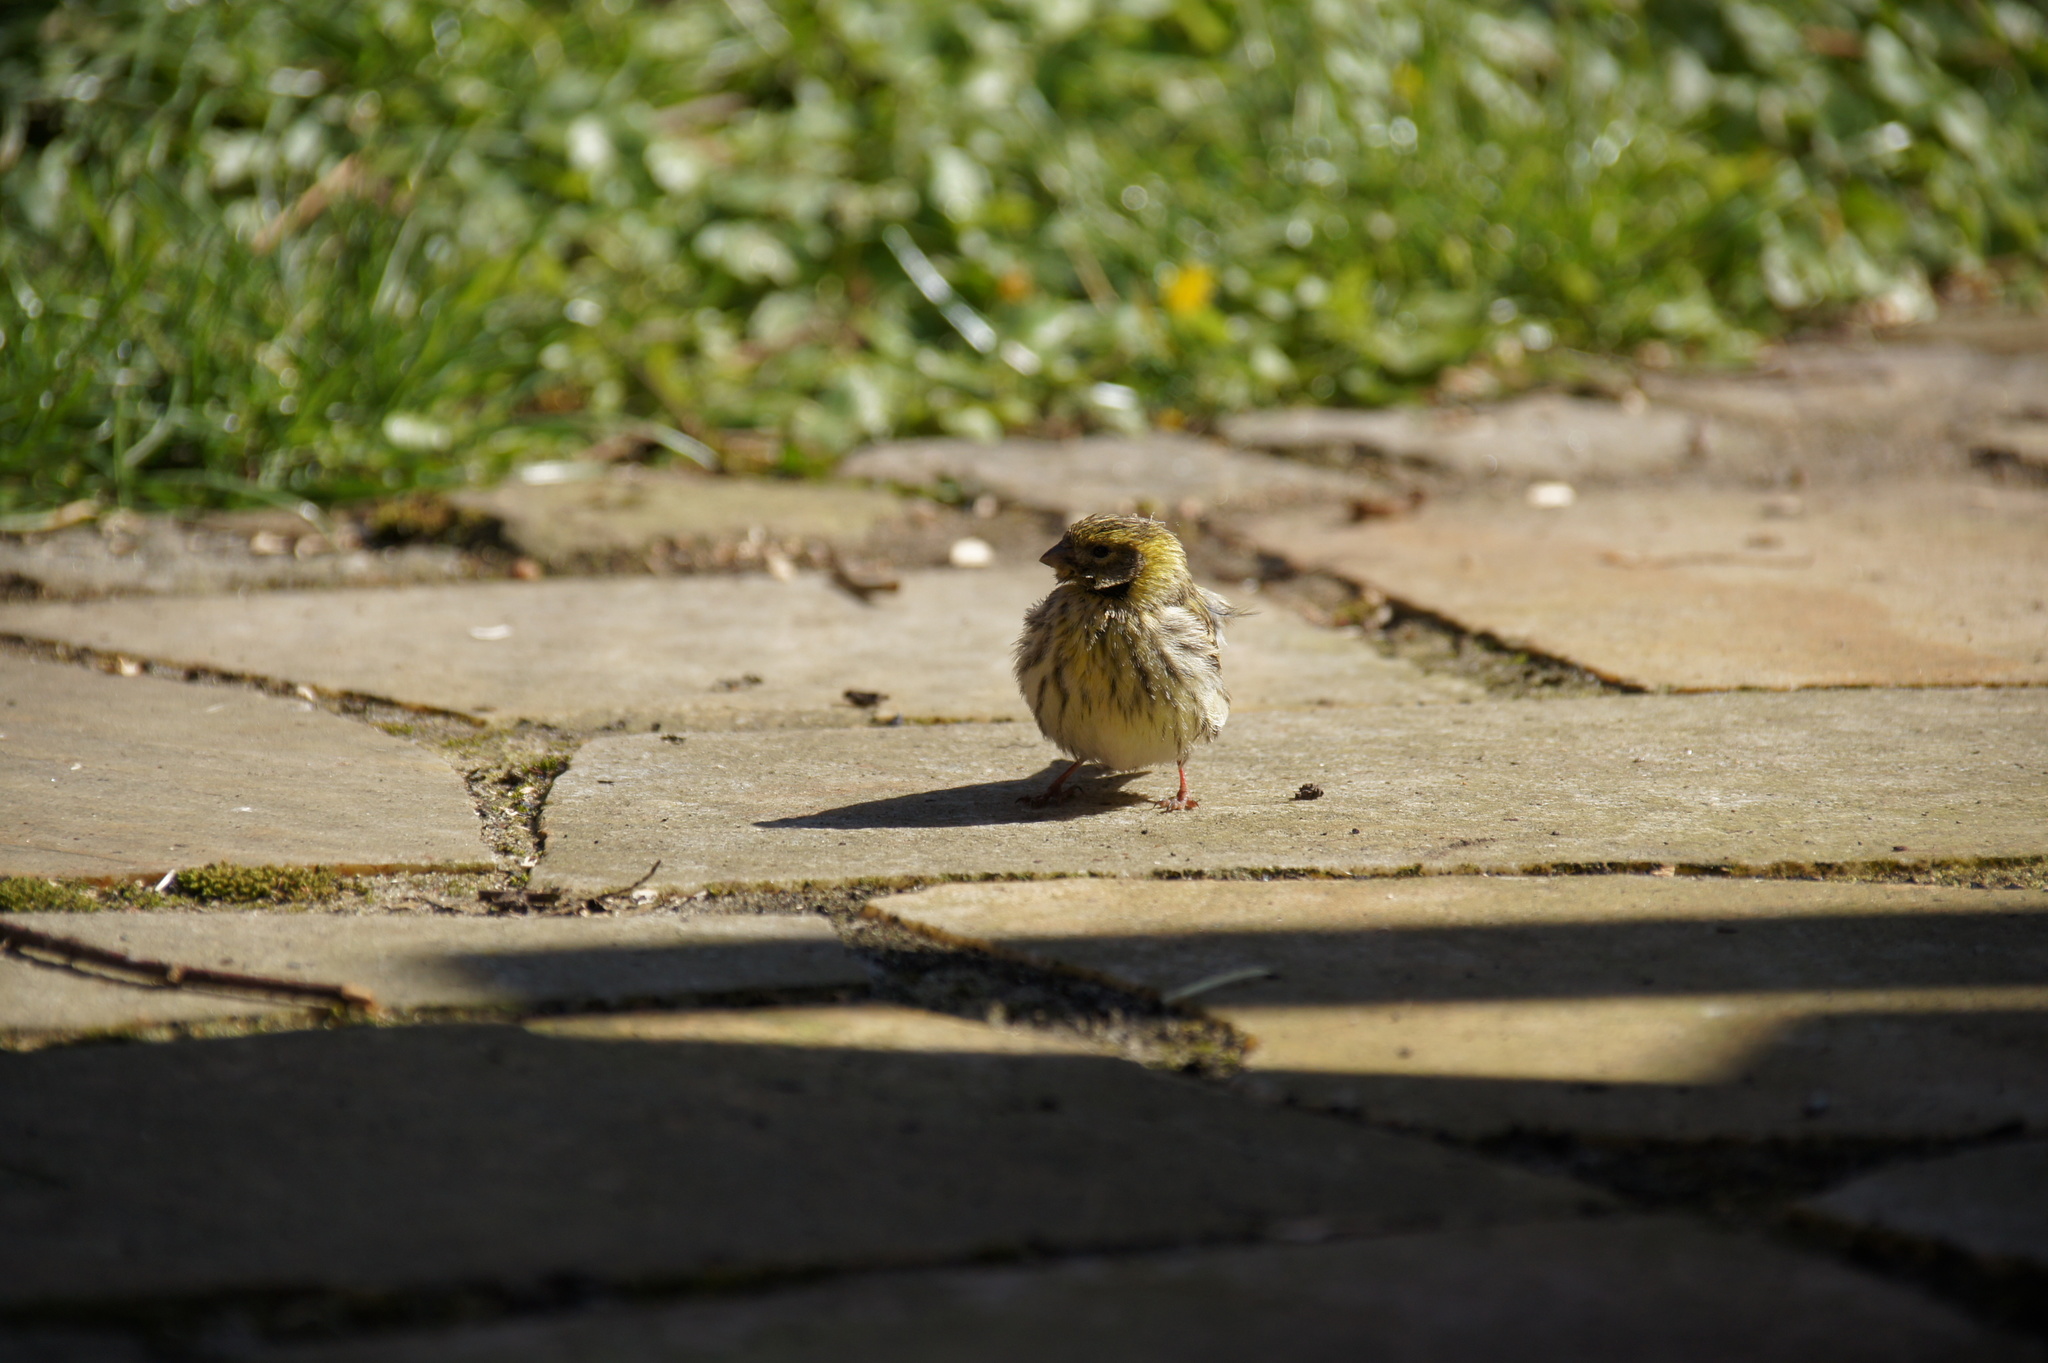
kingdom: Animalia
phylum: Chordata
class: Aves
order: Passeriformes
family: Fringillidae
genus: Serinus
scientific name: Serinus serinus
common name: European serin
